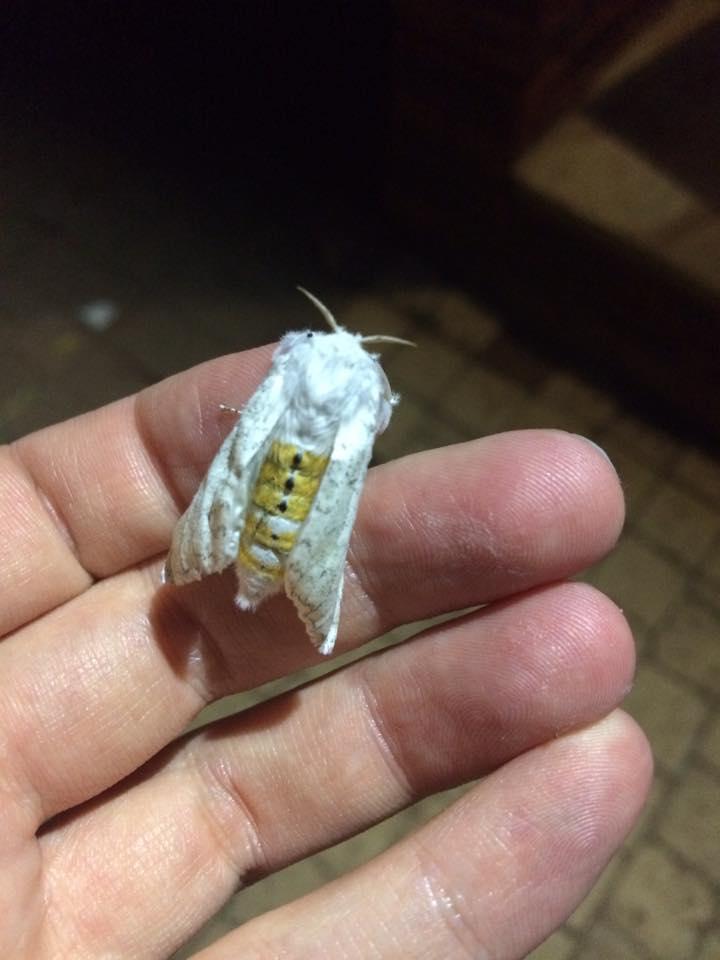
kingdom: Animalia
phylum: Arthropoda
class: Insecta
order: Lepidoptera
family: Erebidae
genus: Dasychira
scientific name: Dasychira georgiana
